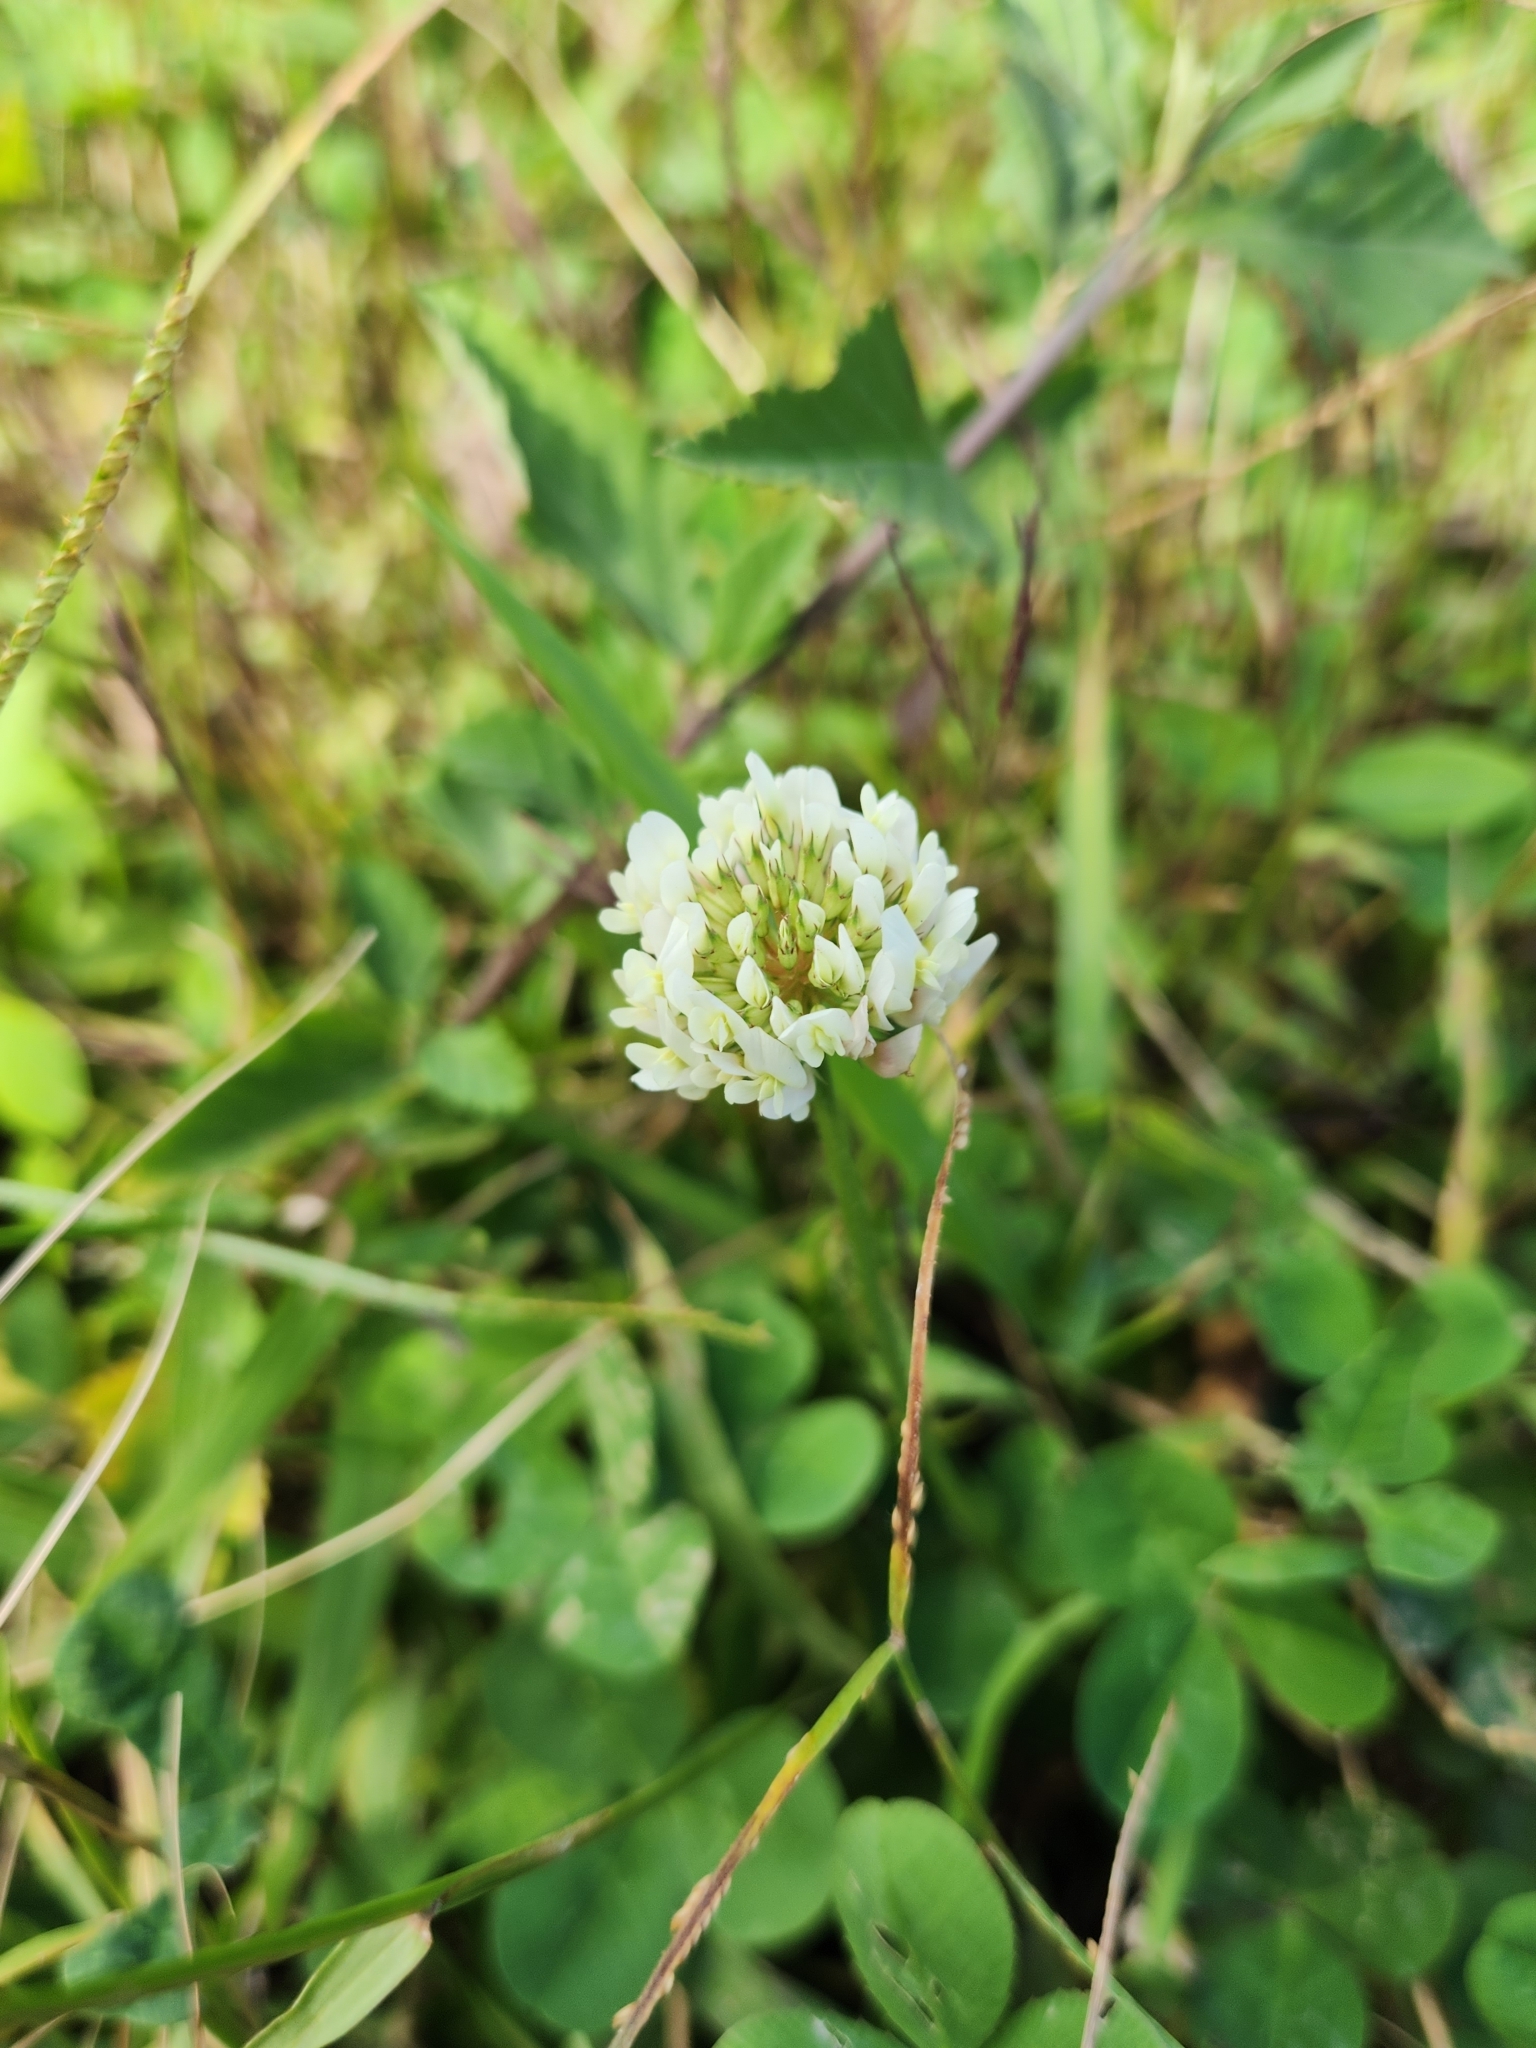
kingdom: Plantae
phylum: Tracheophyta
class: Magnoliopsida
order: Fabales
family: Fabaceae
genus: Trifolium
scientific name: Trifolium repens
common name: White clover
